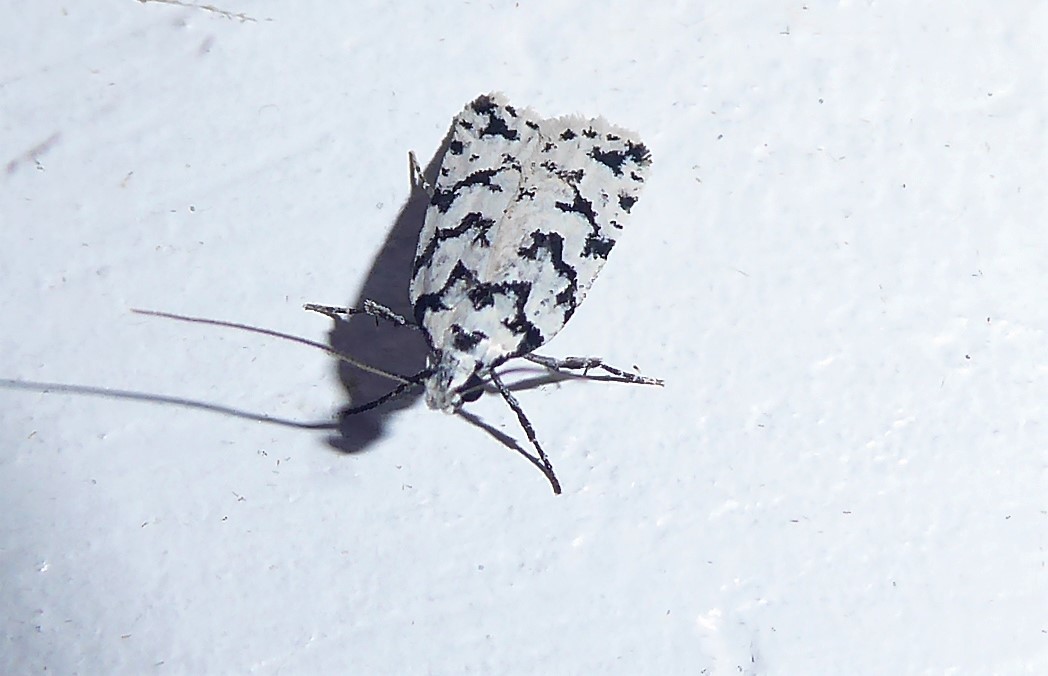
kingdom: Animalia
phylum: Arthropoda
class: Insecta
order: Lepidoptera
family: Oecophoridae
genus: Izatha
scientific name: Izatha katadiktya
